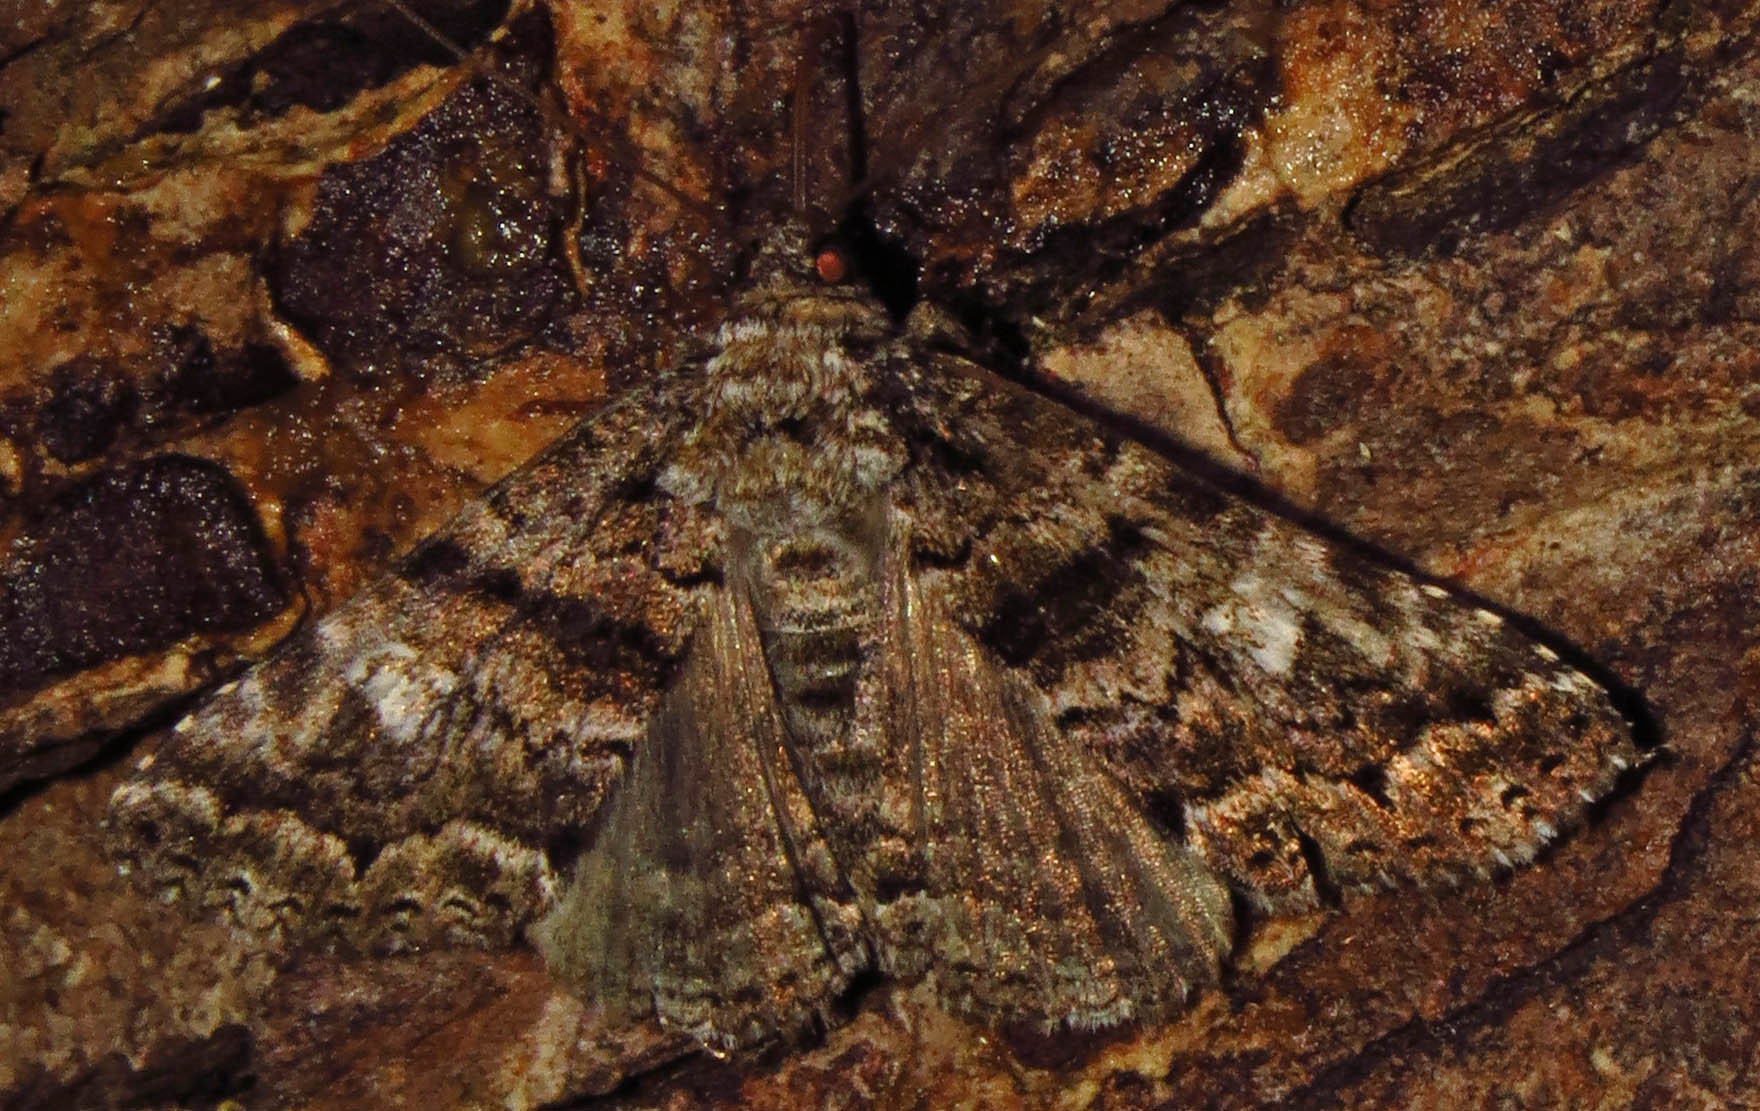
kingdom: Animalia
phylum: Arthropoda
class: Insecta
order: Lepidoptera
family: Erebidae
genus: Metria
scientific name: Metria amella
